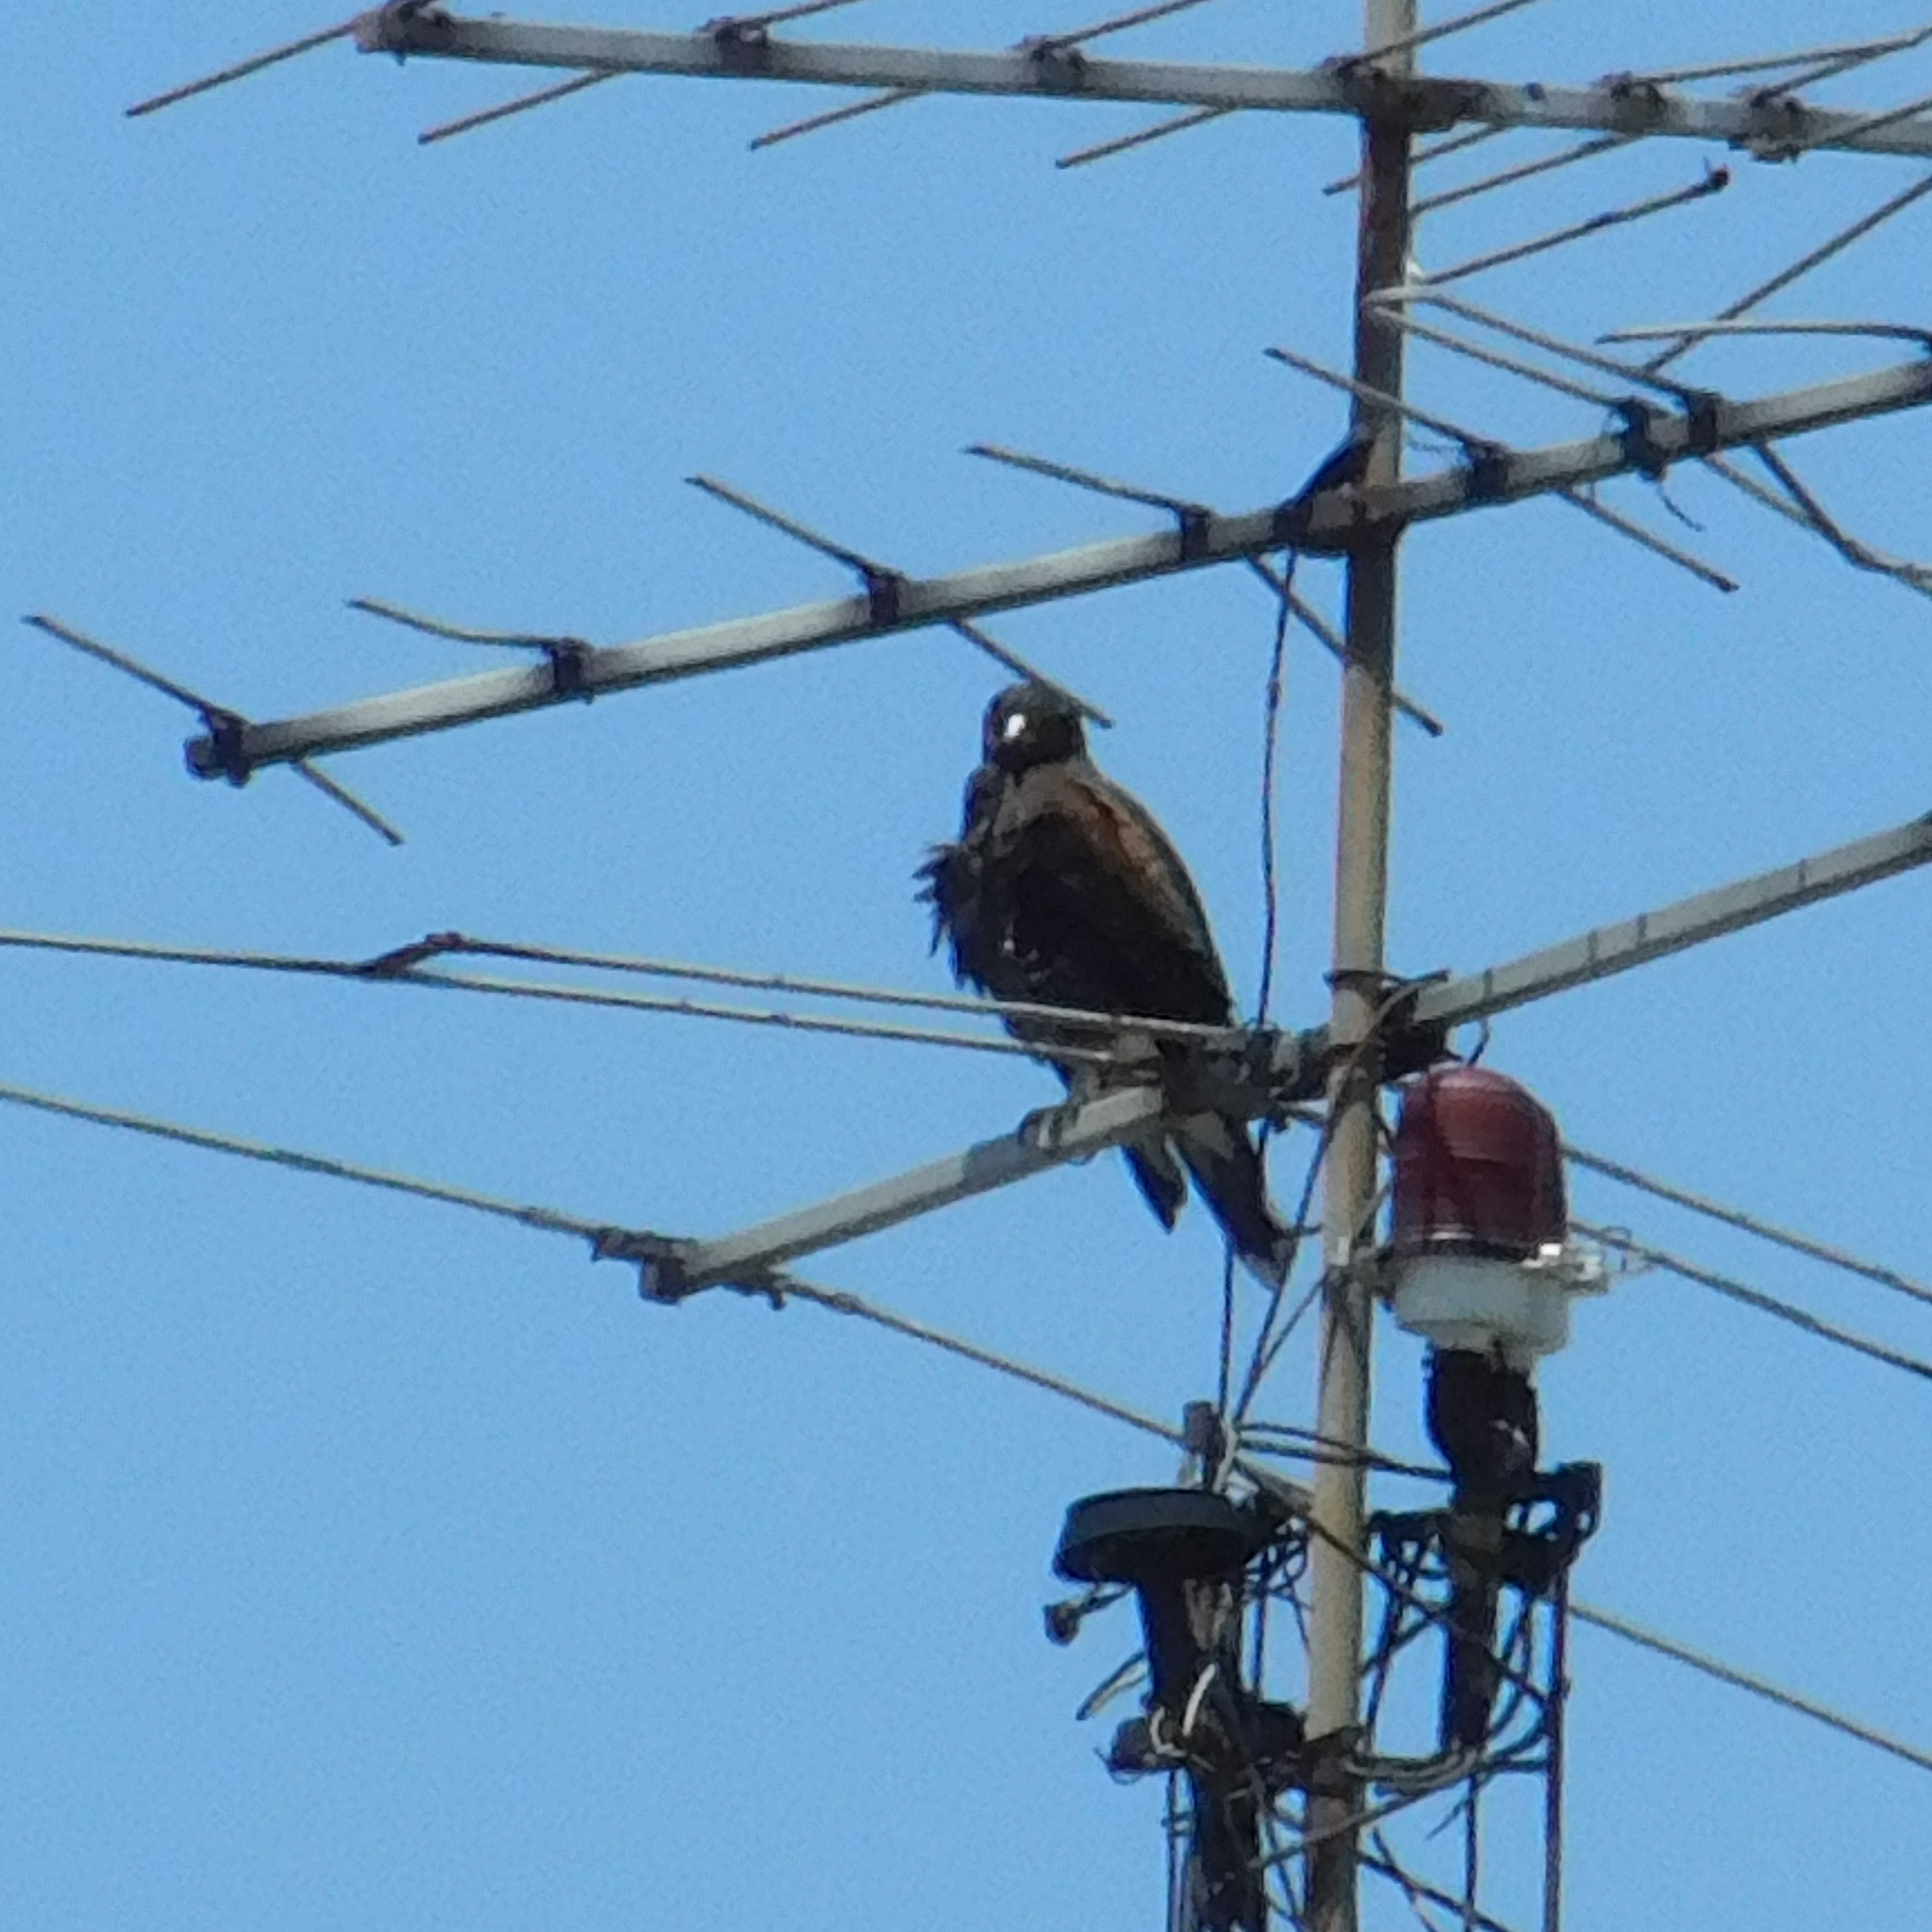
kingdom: Animalia
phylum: Chordata
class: Aves
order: Accipitriformes
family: Accipitridae
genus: Parabuteo
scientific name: Parabuteo unicinctus
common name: Harris's hawk
